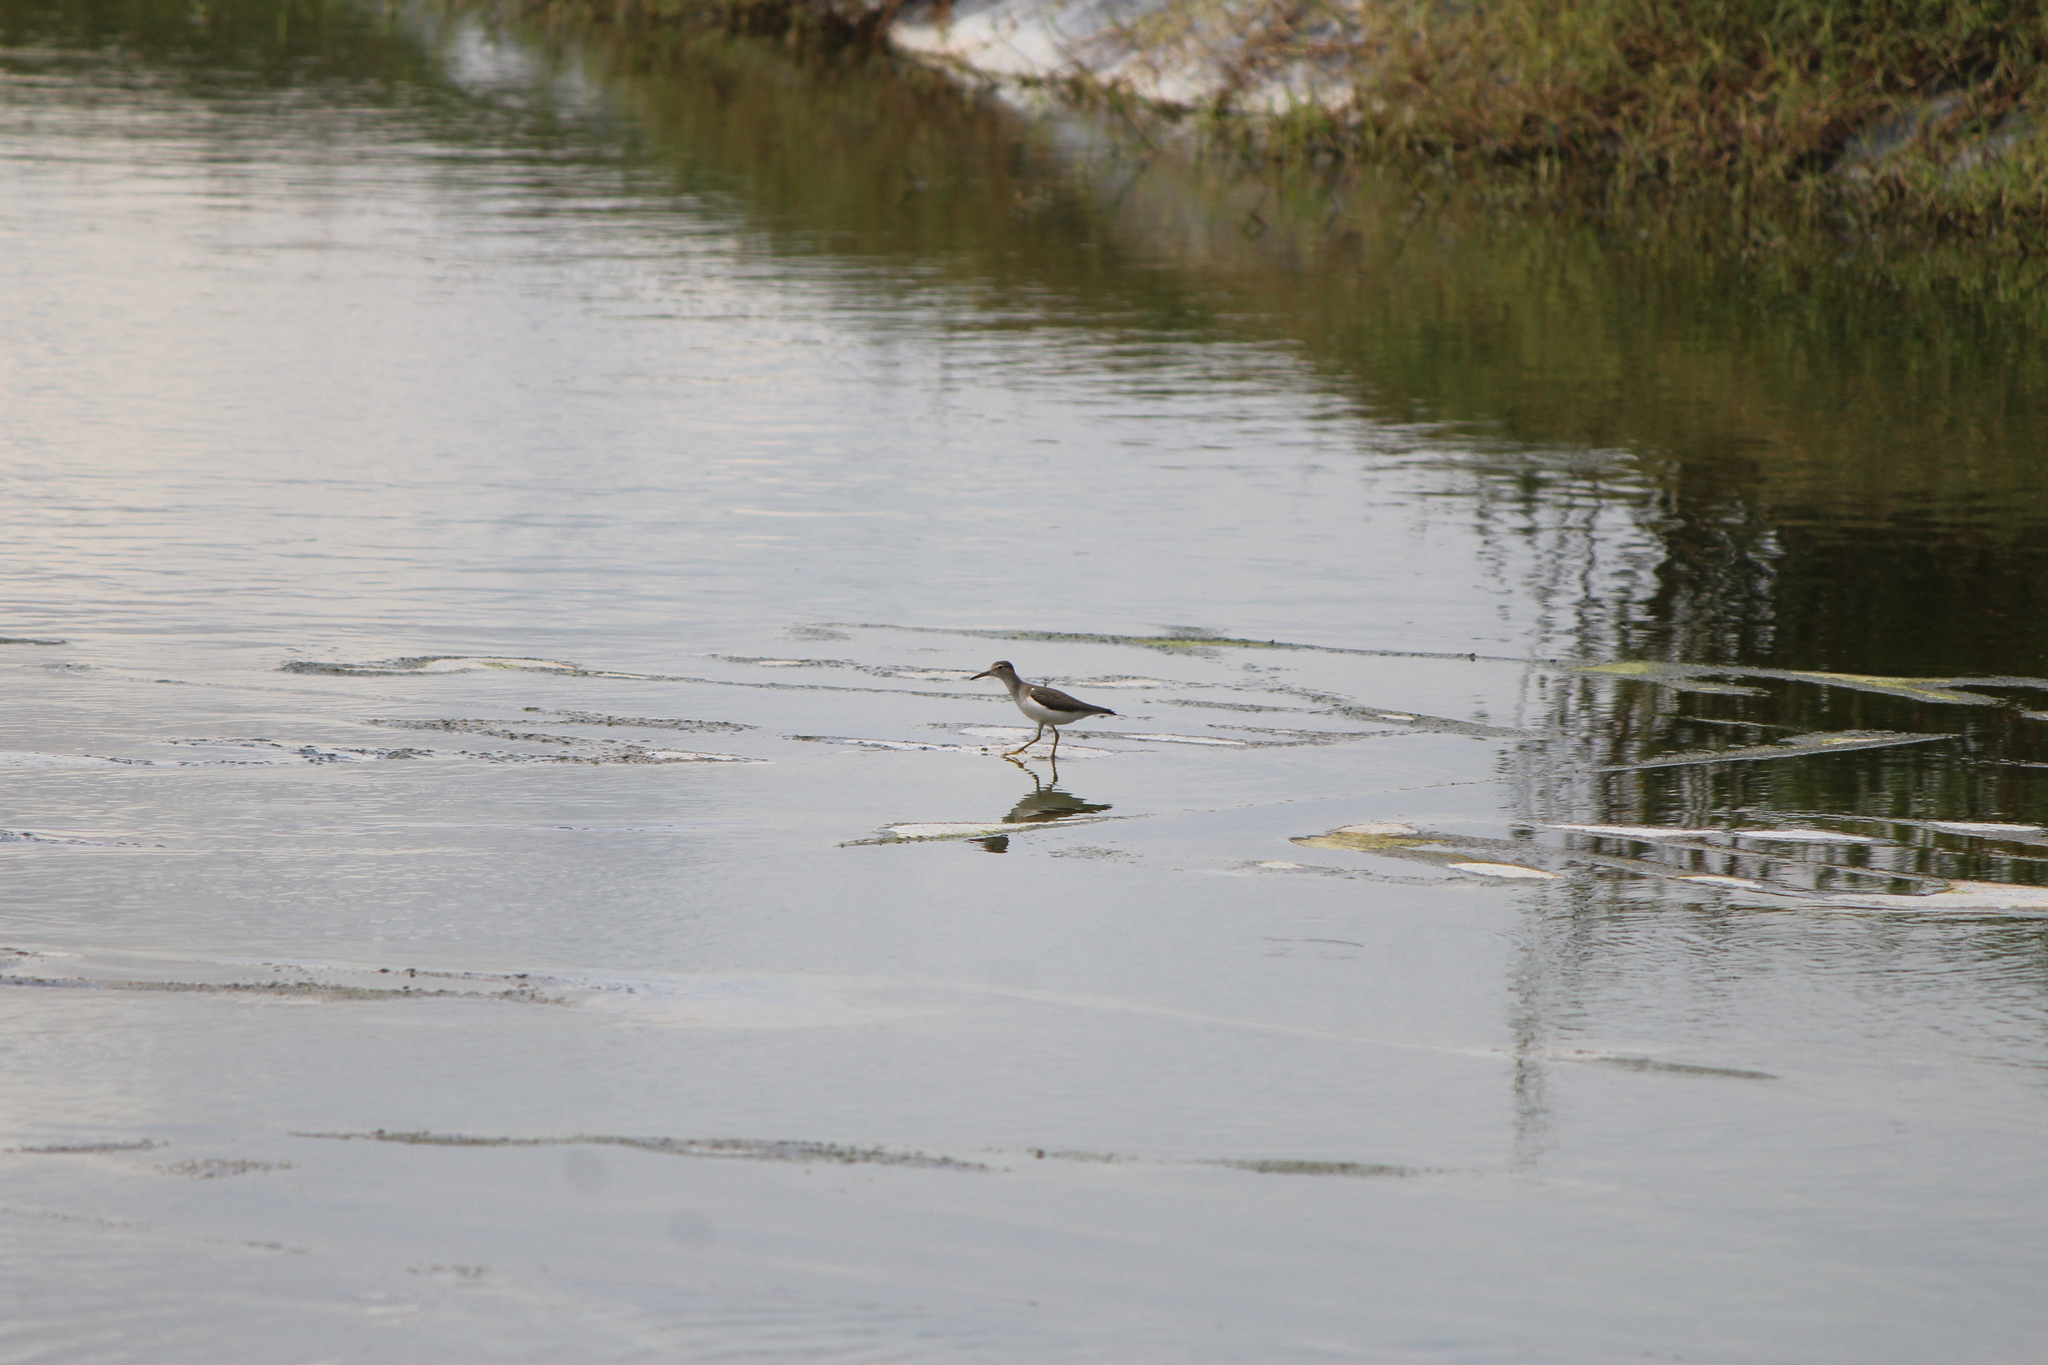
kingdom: Animalia
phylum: Chordata
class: Aves
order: Charadriiformes
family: Scolopacidae
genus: Actitis
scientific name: Actitis macularius
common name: Spotted sandpiper
